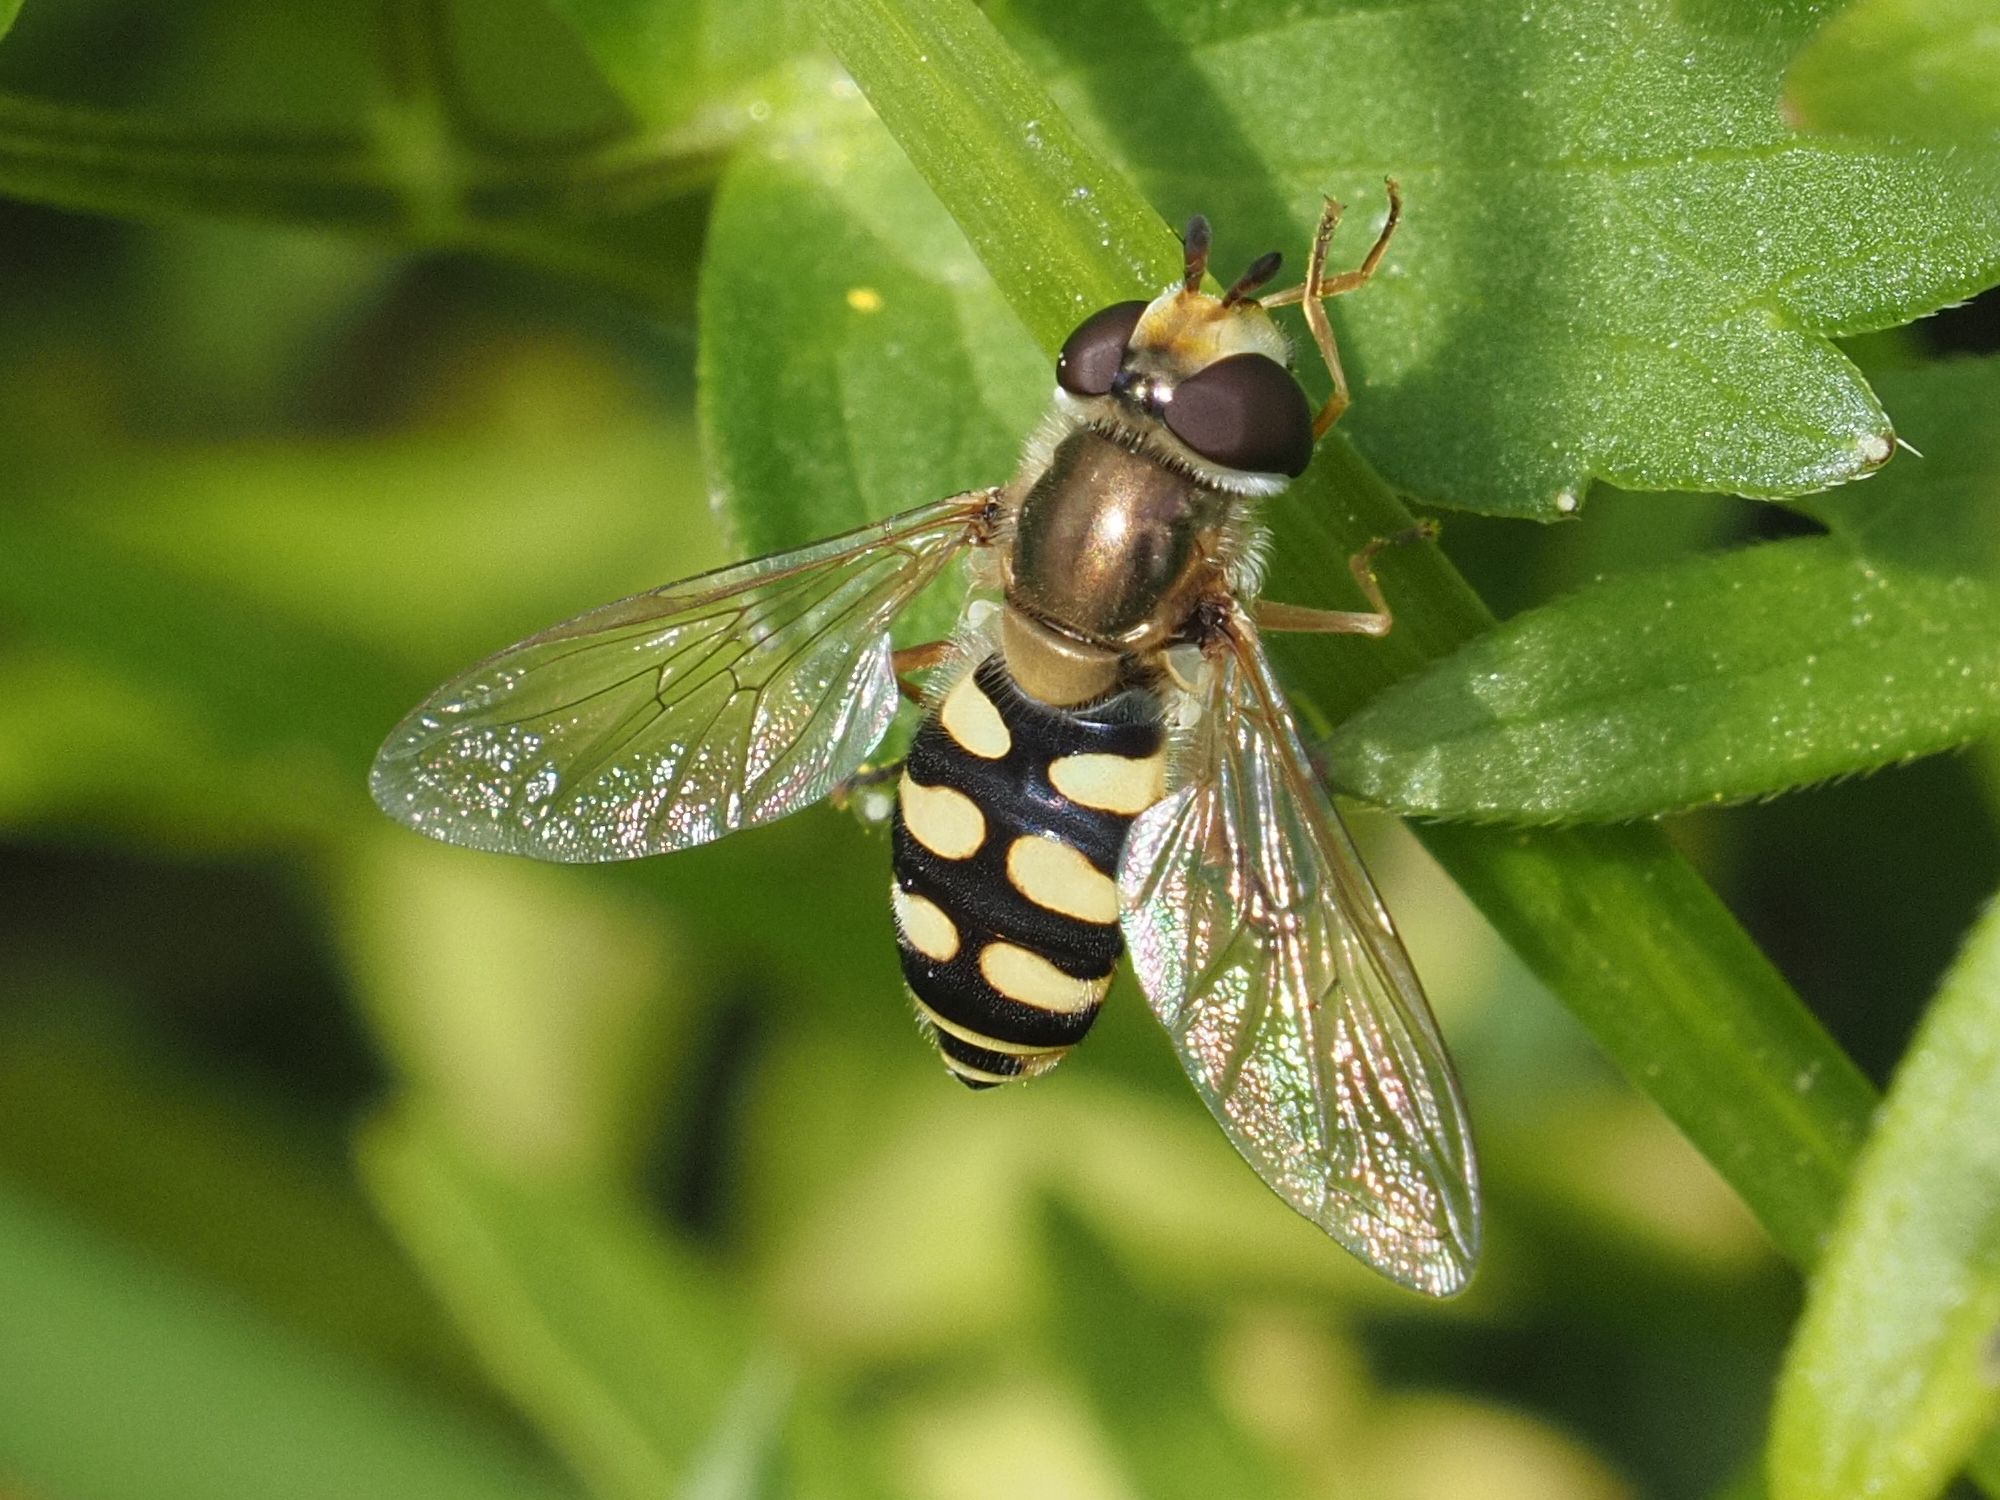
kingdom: Animalia
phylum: Arthropoda
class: Insecta
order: Diptera
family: Syrphidae
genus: Eupeodes
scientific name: Eupeodes corollae
